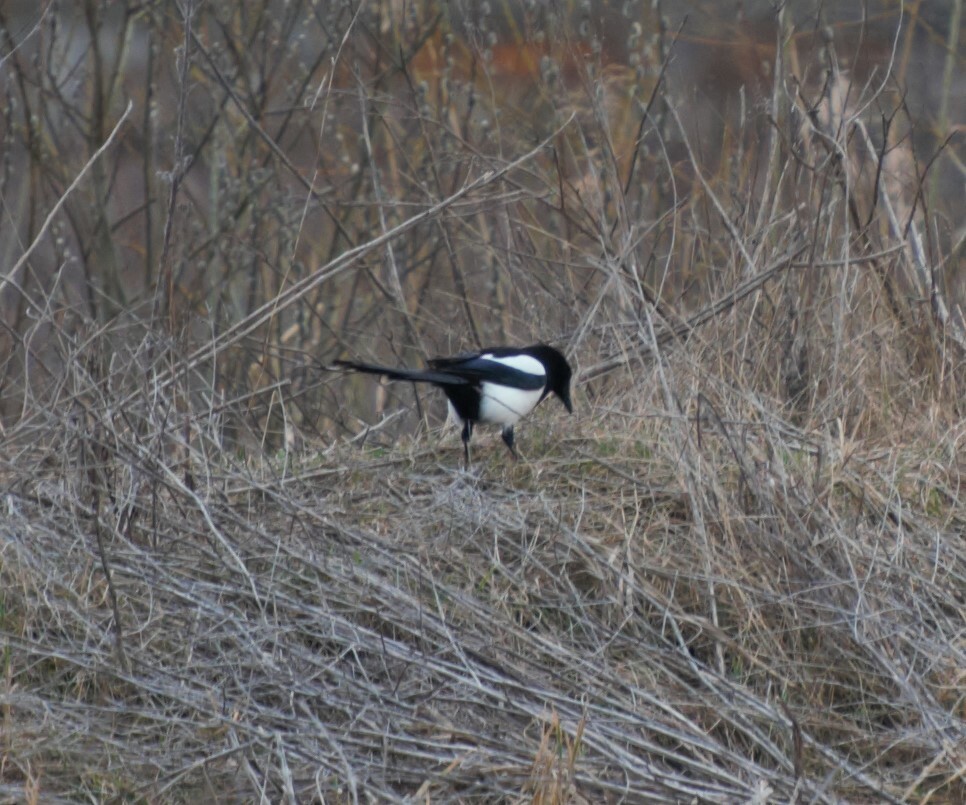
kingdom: Animalia
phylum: Chordata
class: Aves
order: Passeriformes
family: Corvidae
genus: Pica
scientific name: Pica pica
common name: Eurasian magpie
